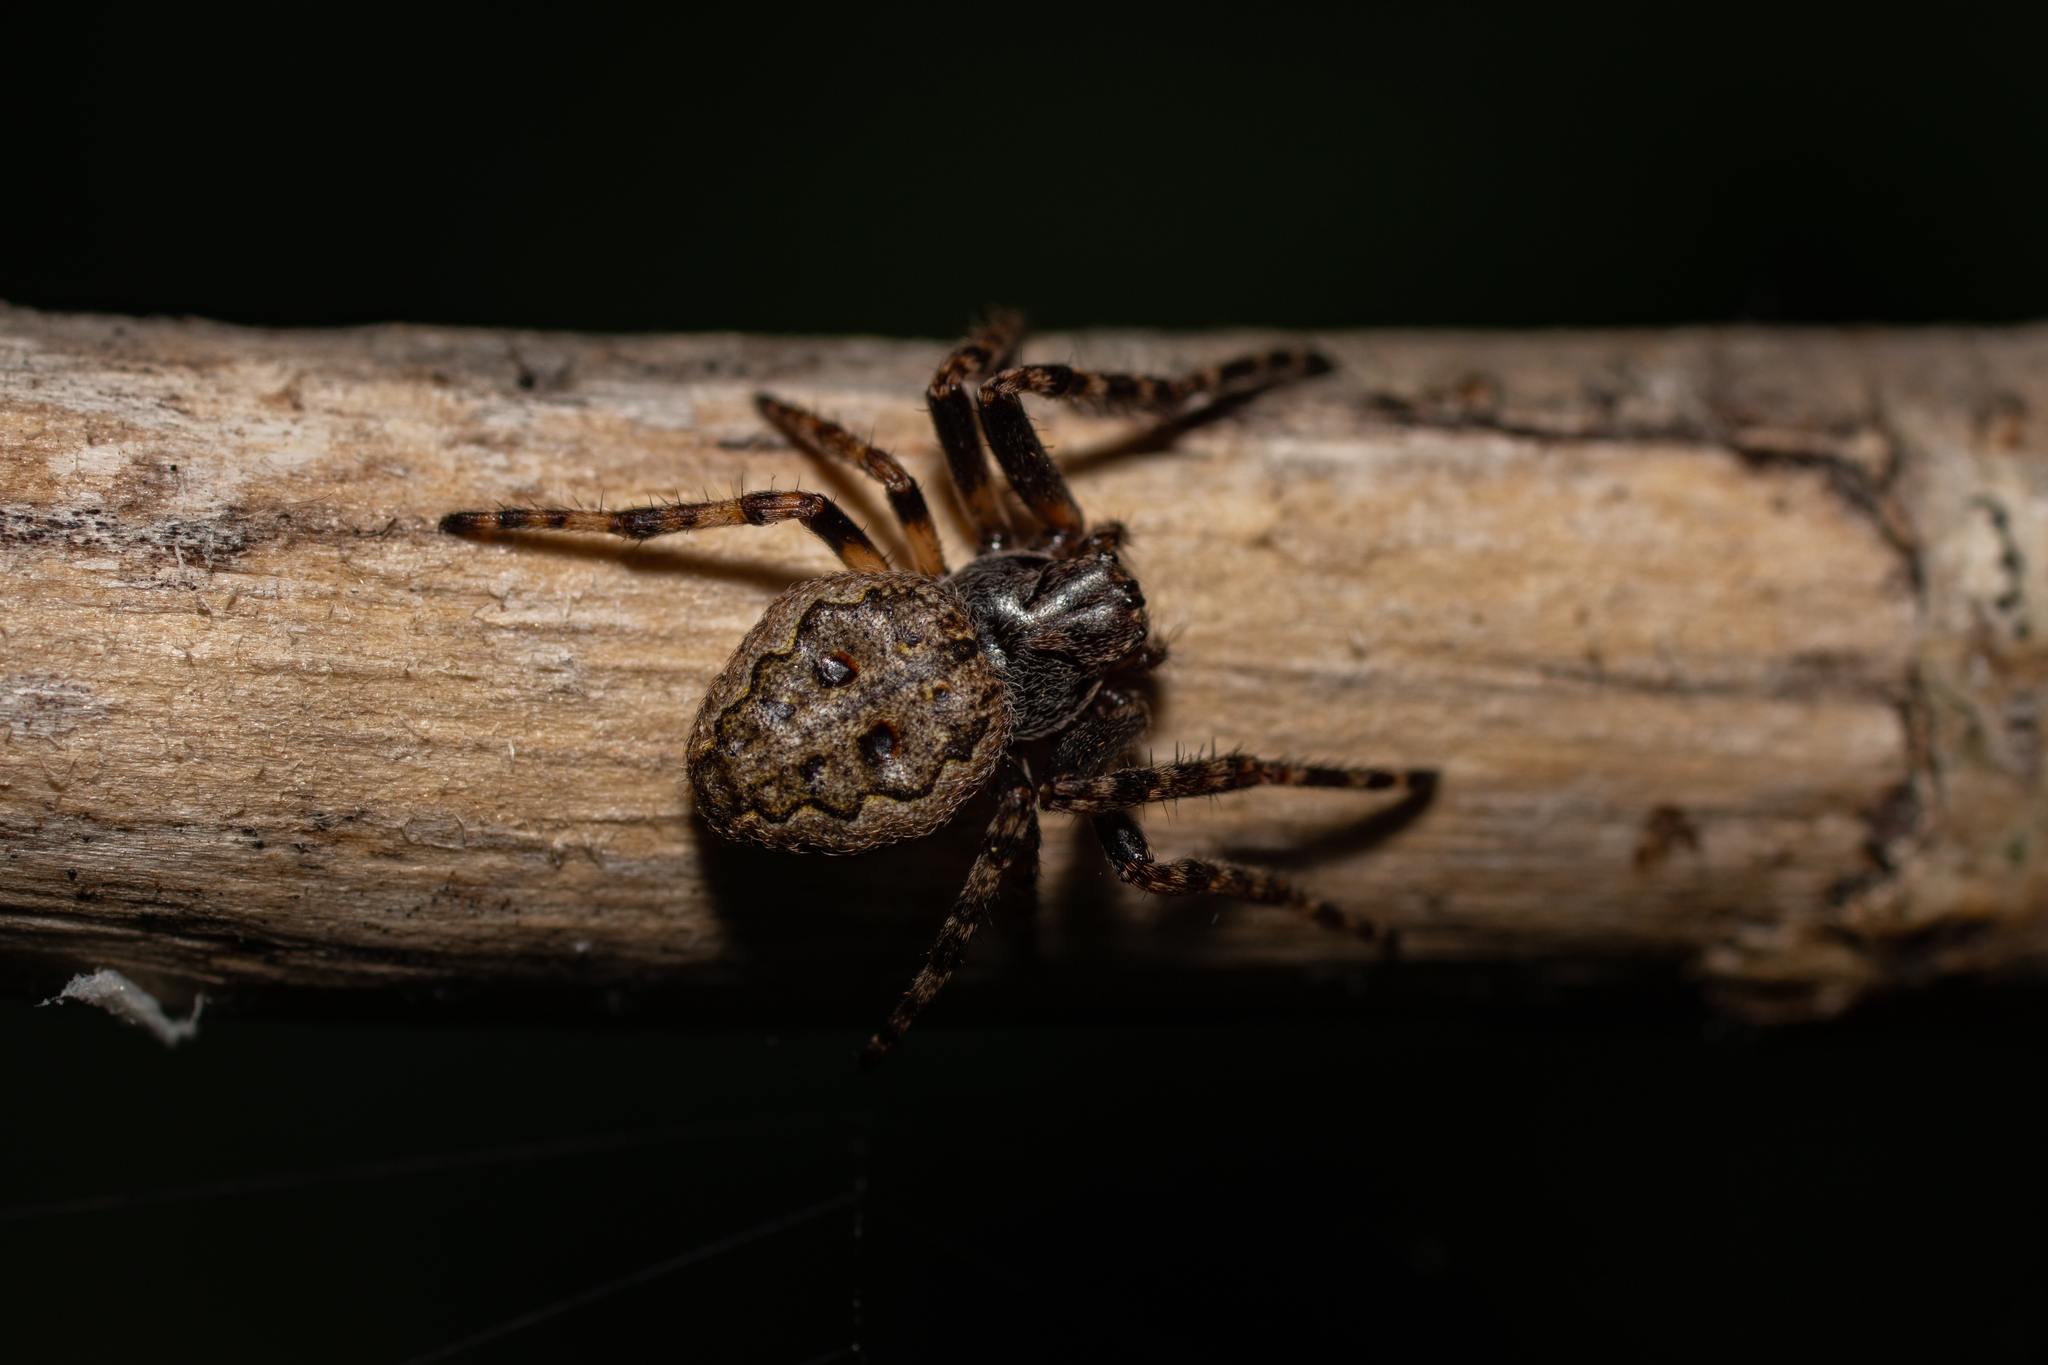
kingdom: Animalia
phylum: Arthropoda
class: Arachnida
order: Araneae
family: Araneidae
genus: Nuctenea
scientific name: Nuctenea umbratica
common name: Toad spider
